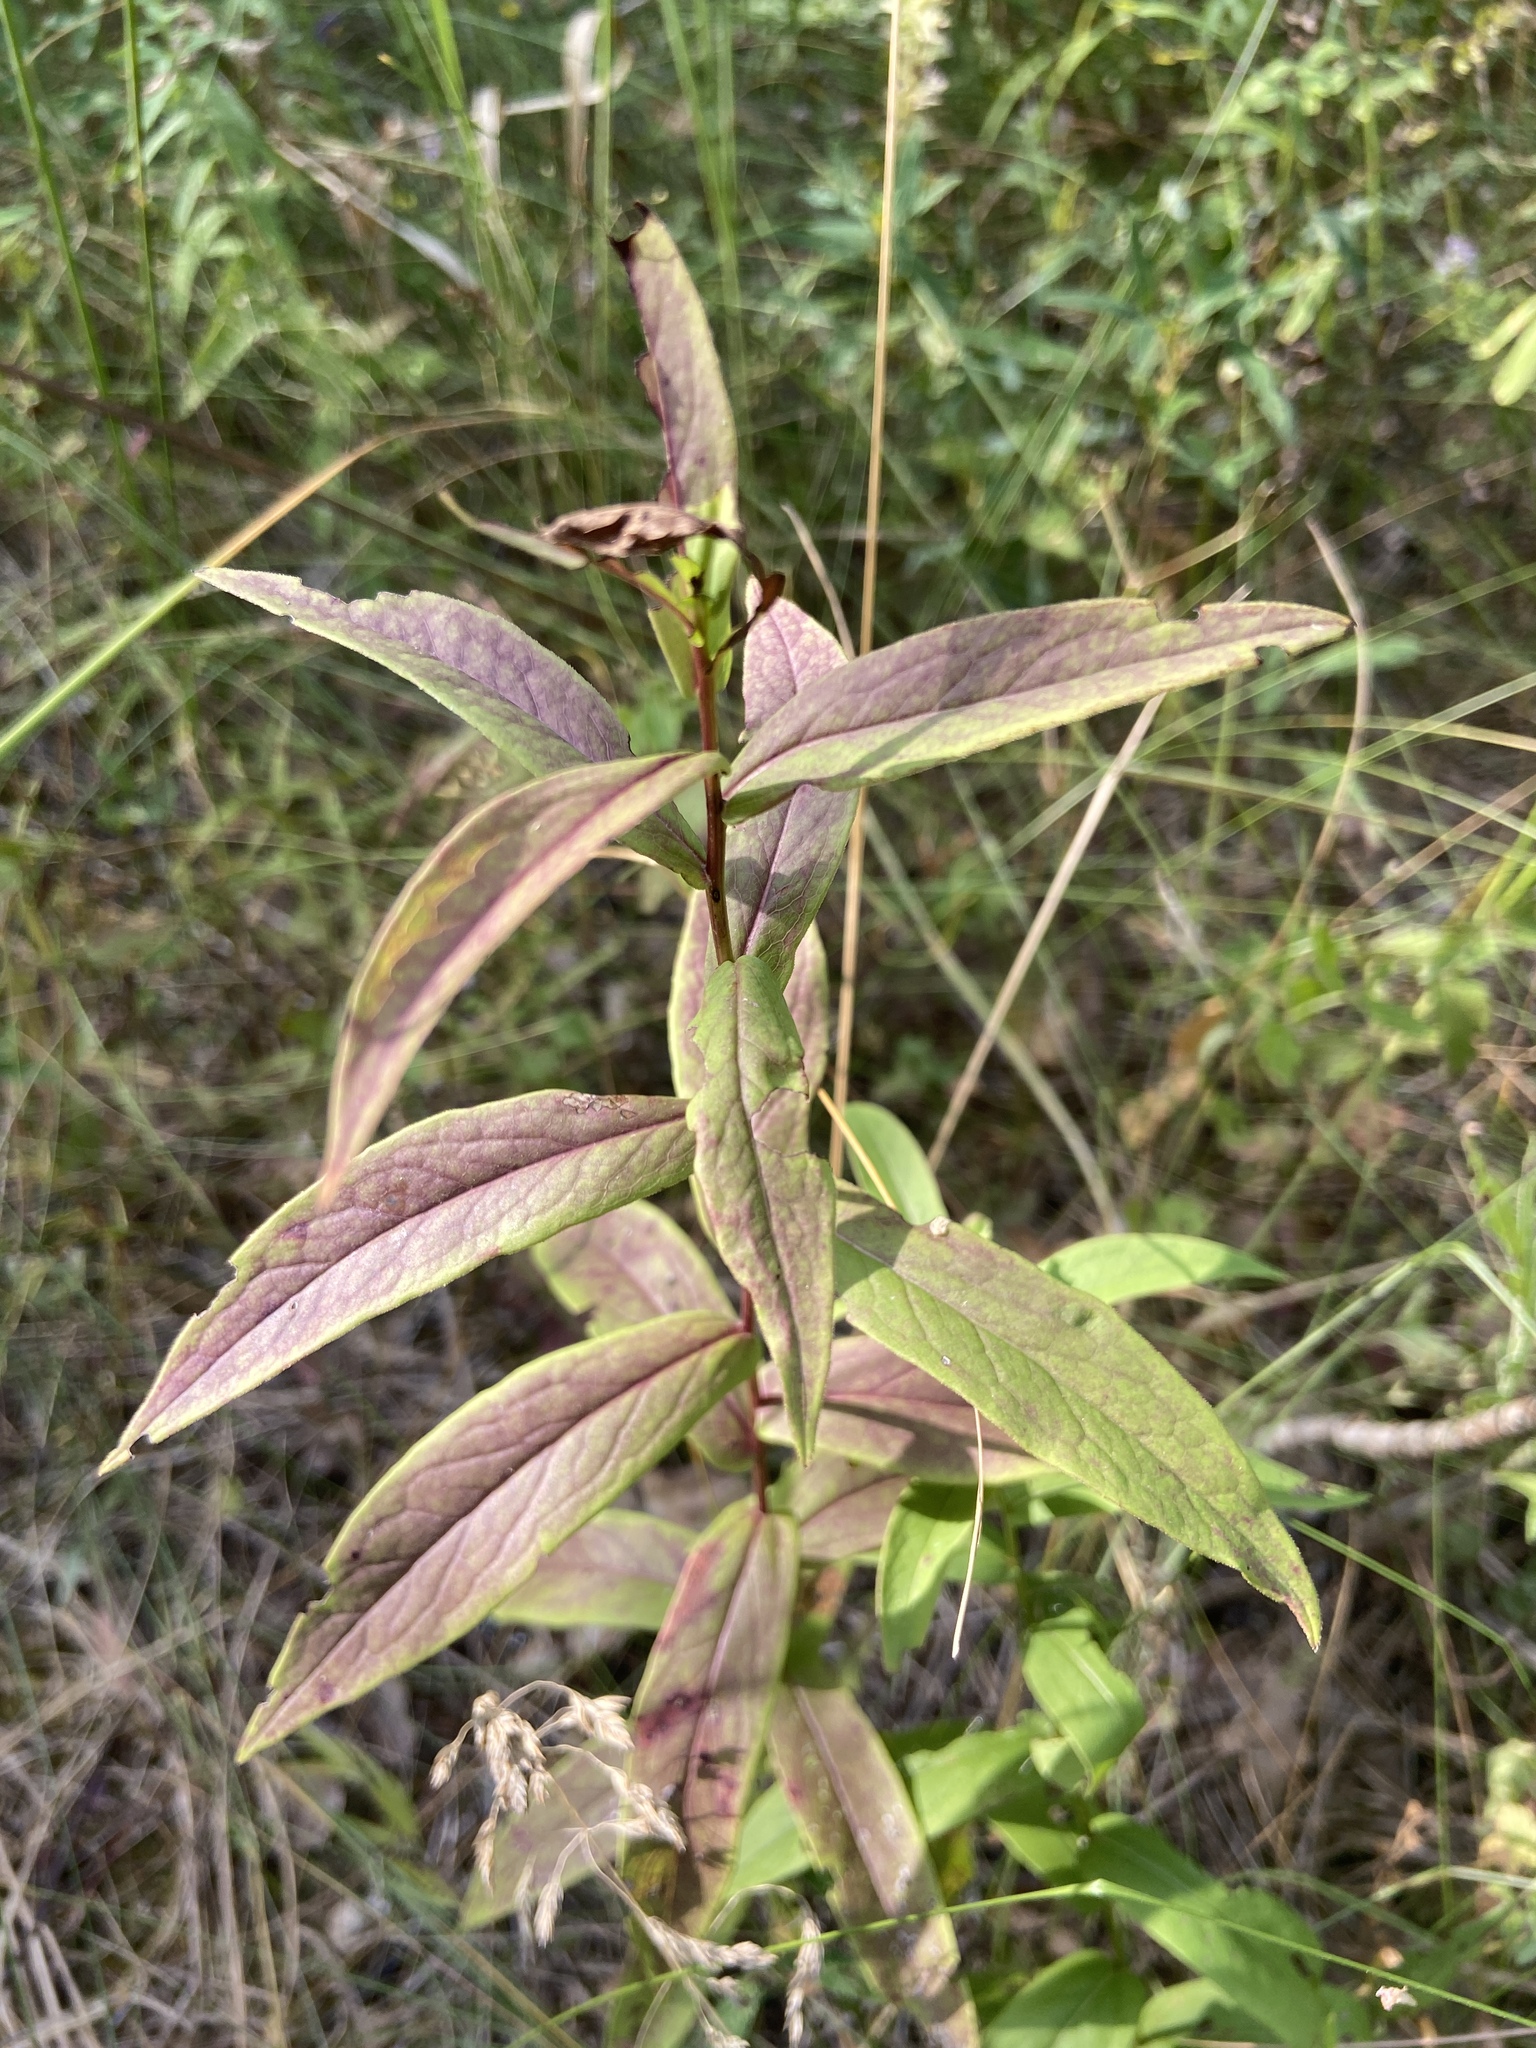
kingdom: Plantae
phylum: Tracheophyta
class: Magnoliopsida
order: Asterales
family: Asteraceae
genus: Pentanema
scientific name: Pentanema salicinum
